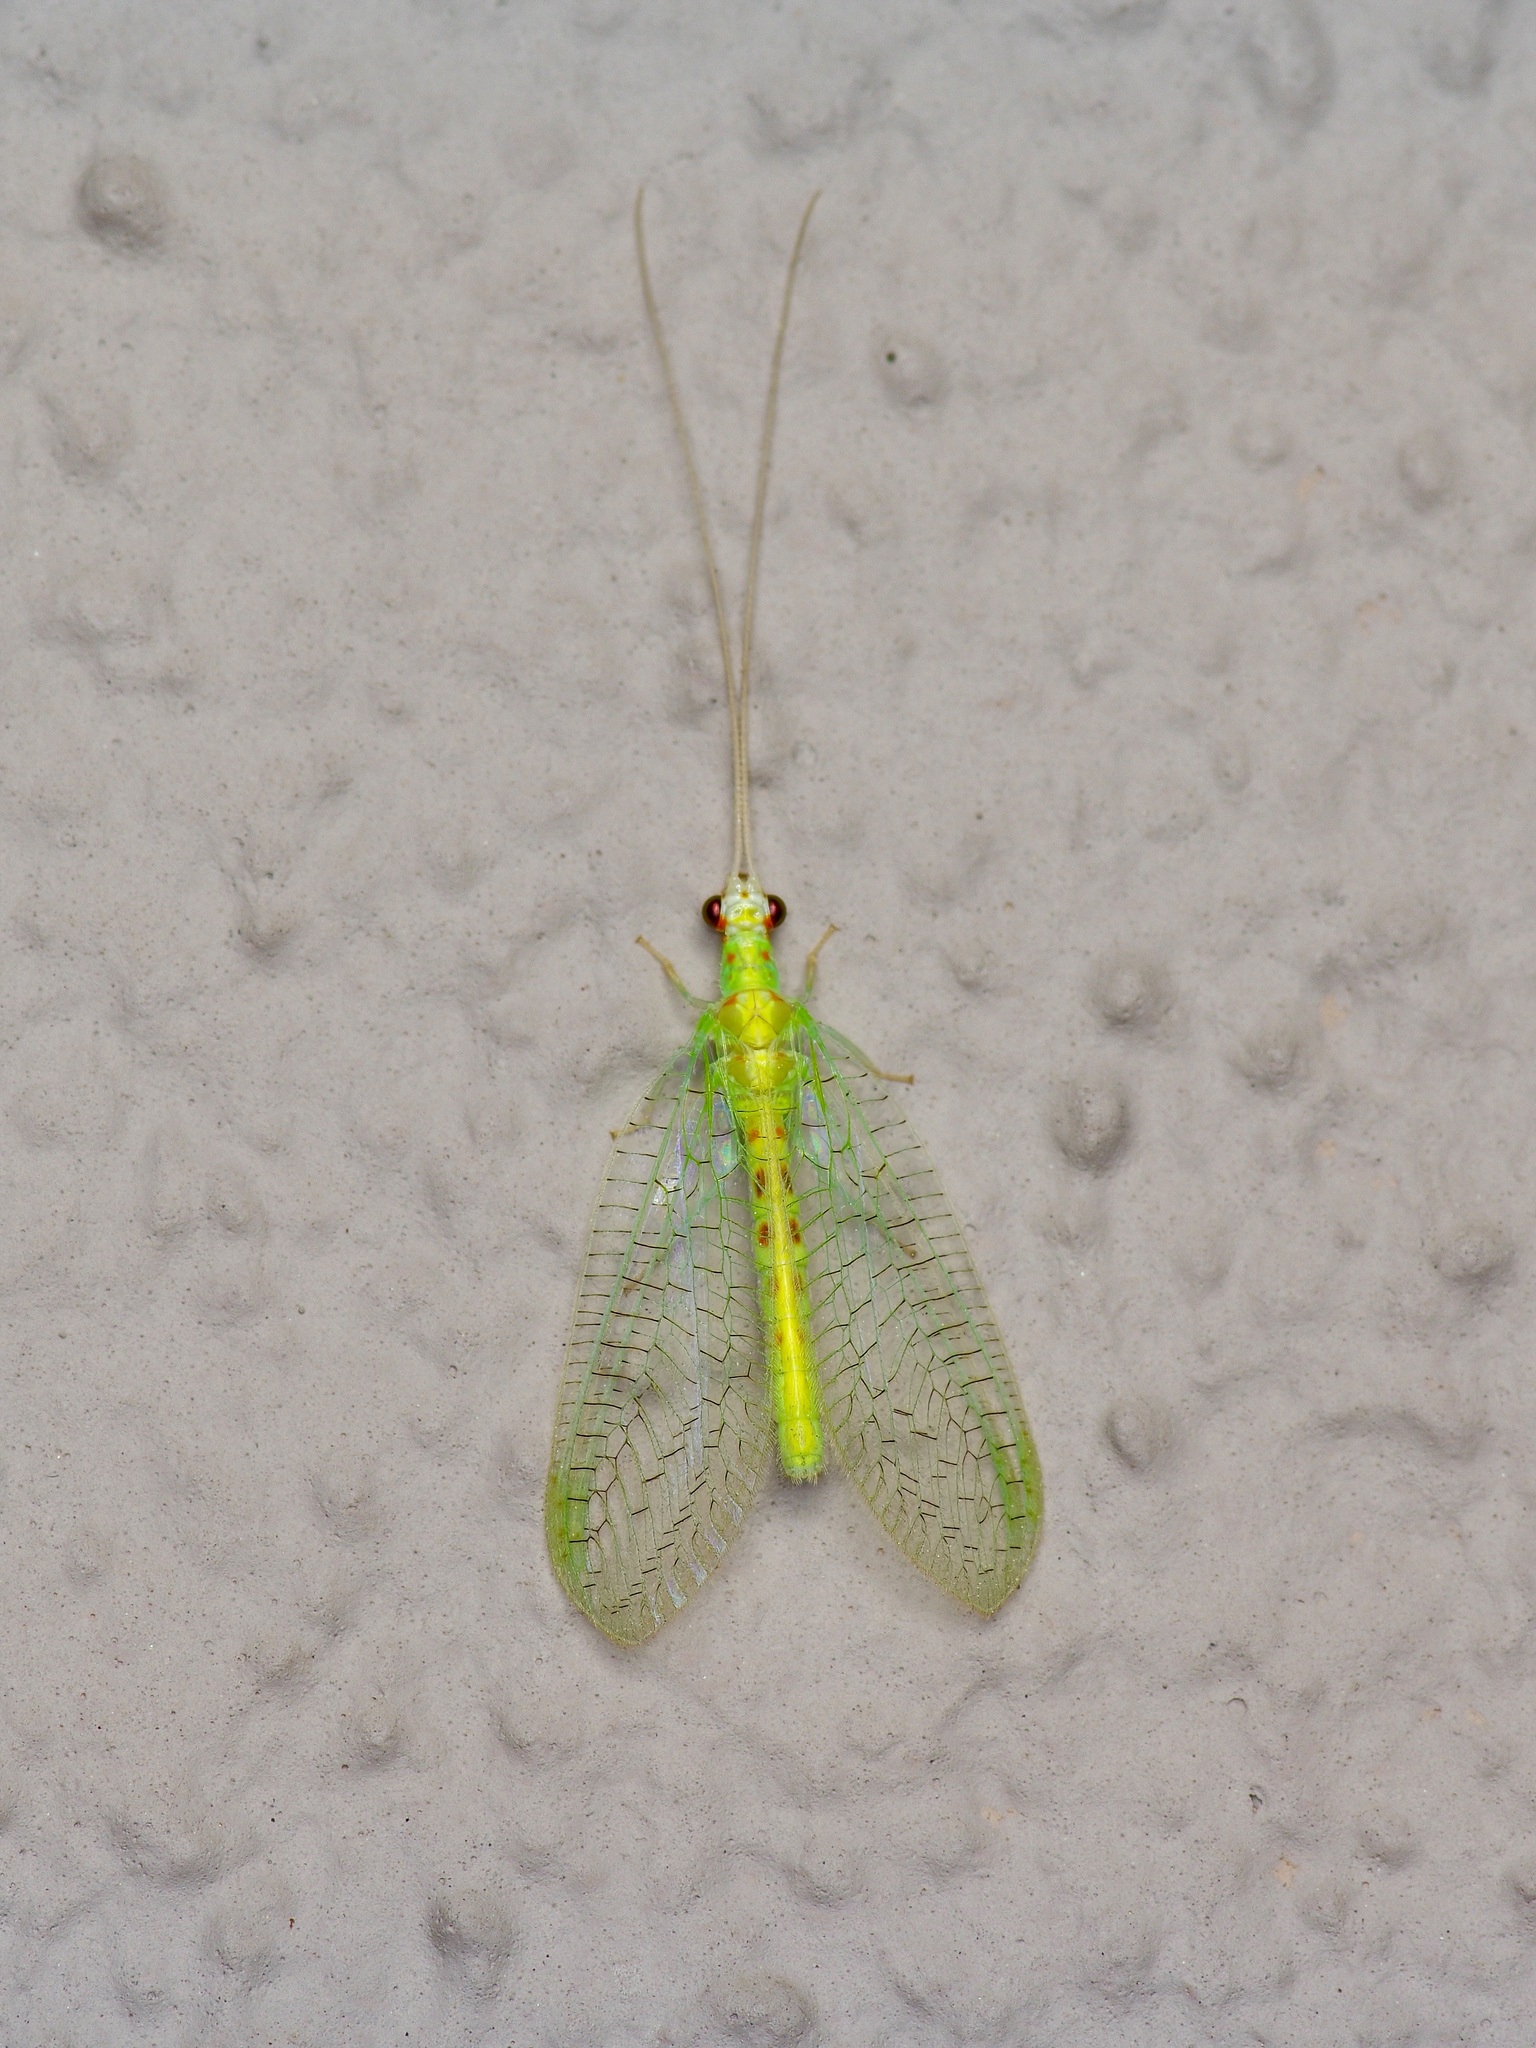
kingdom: Animalia
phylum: Arthropoda
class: Insecta
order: Neuroptera
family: Chrysopidae
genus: Chrysopa
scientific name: Chrysopa quadripunctata
